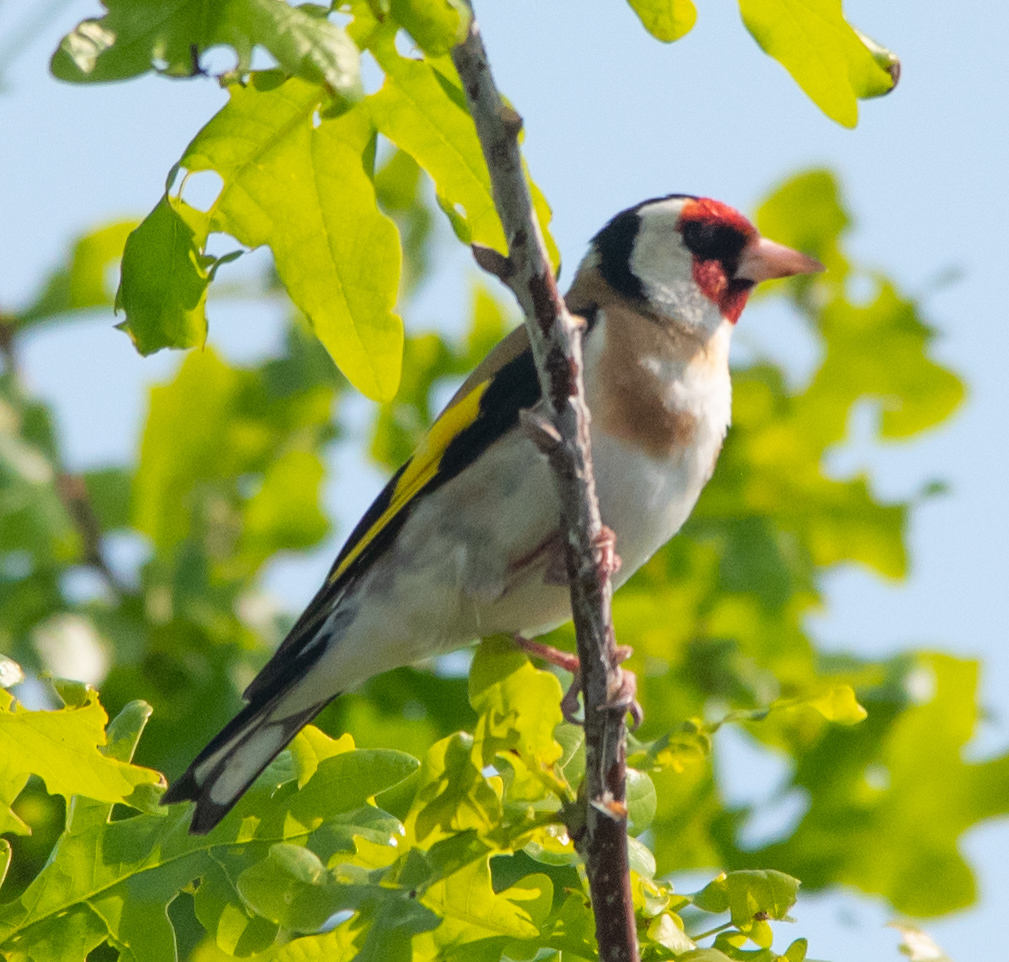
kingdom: Animalia
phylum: Chordata
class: Aves
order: Passeriformes
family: Fringillidae
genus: Carduelis
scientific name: Carduelis carduelis
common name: European goldfinch
